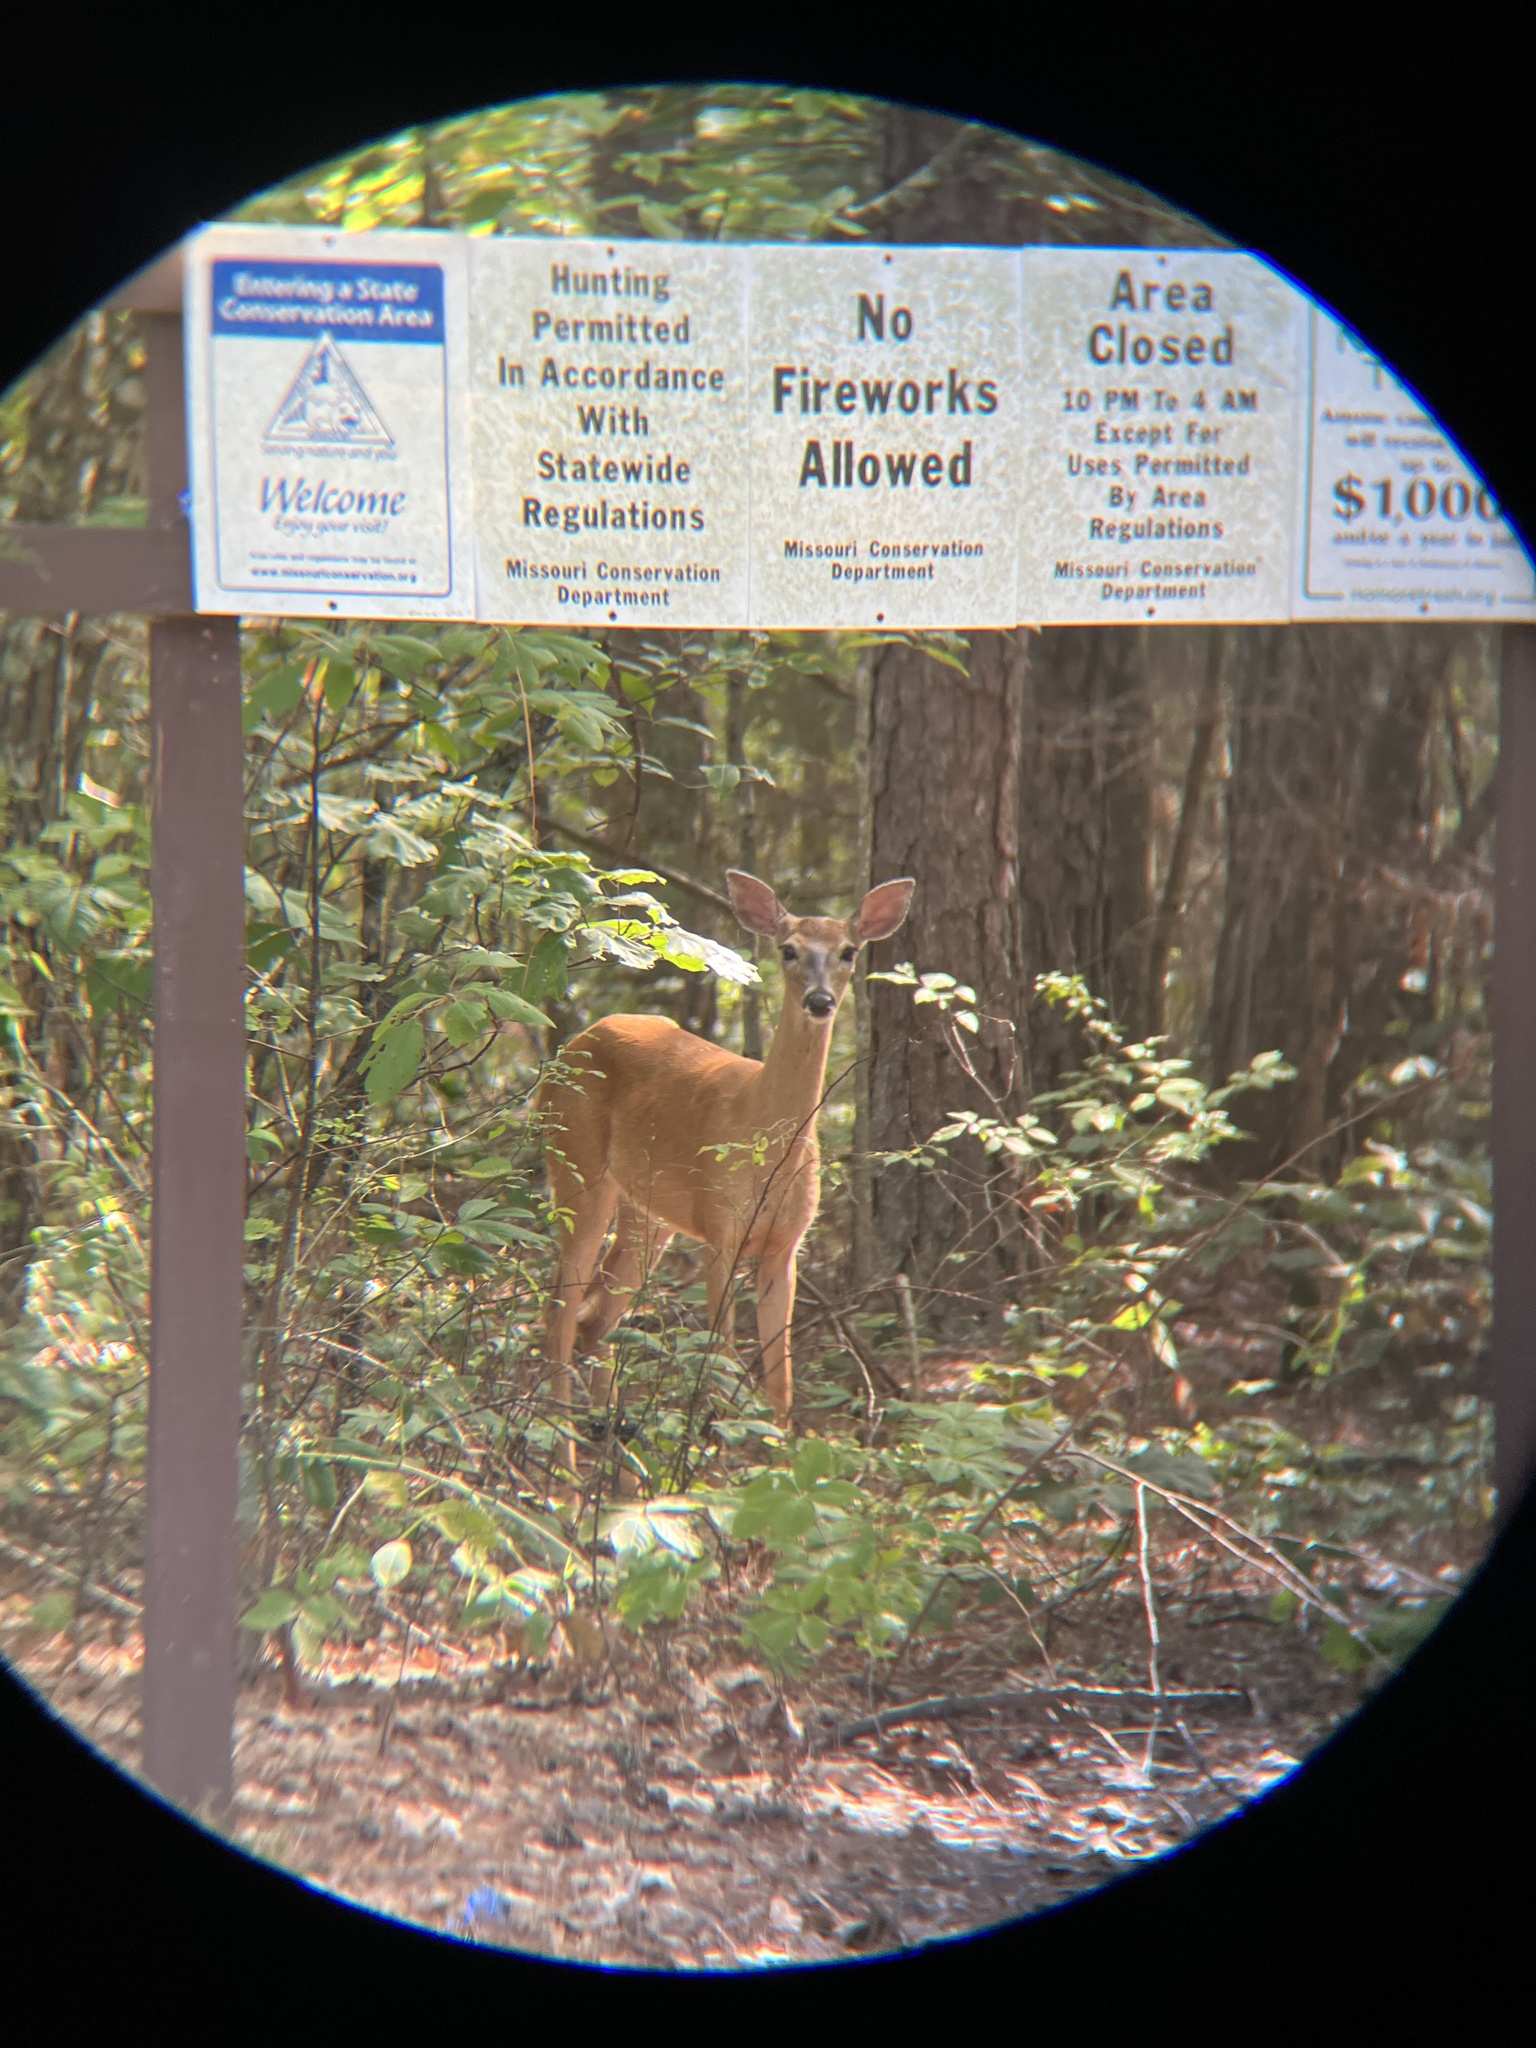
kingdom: Animalia
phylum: Chordata
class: Mammalia
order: Artiodactyla
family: Cervidae
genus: Odocoileus
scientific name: Odocoileus virginianus
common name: White-tailed deer
